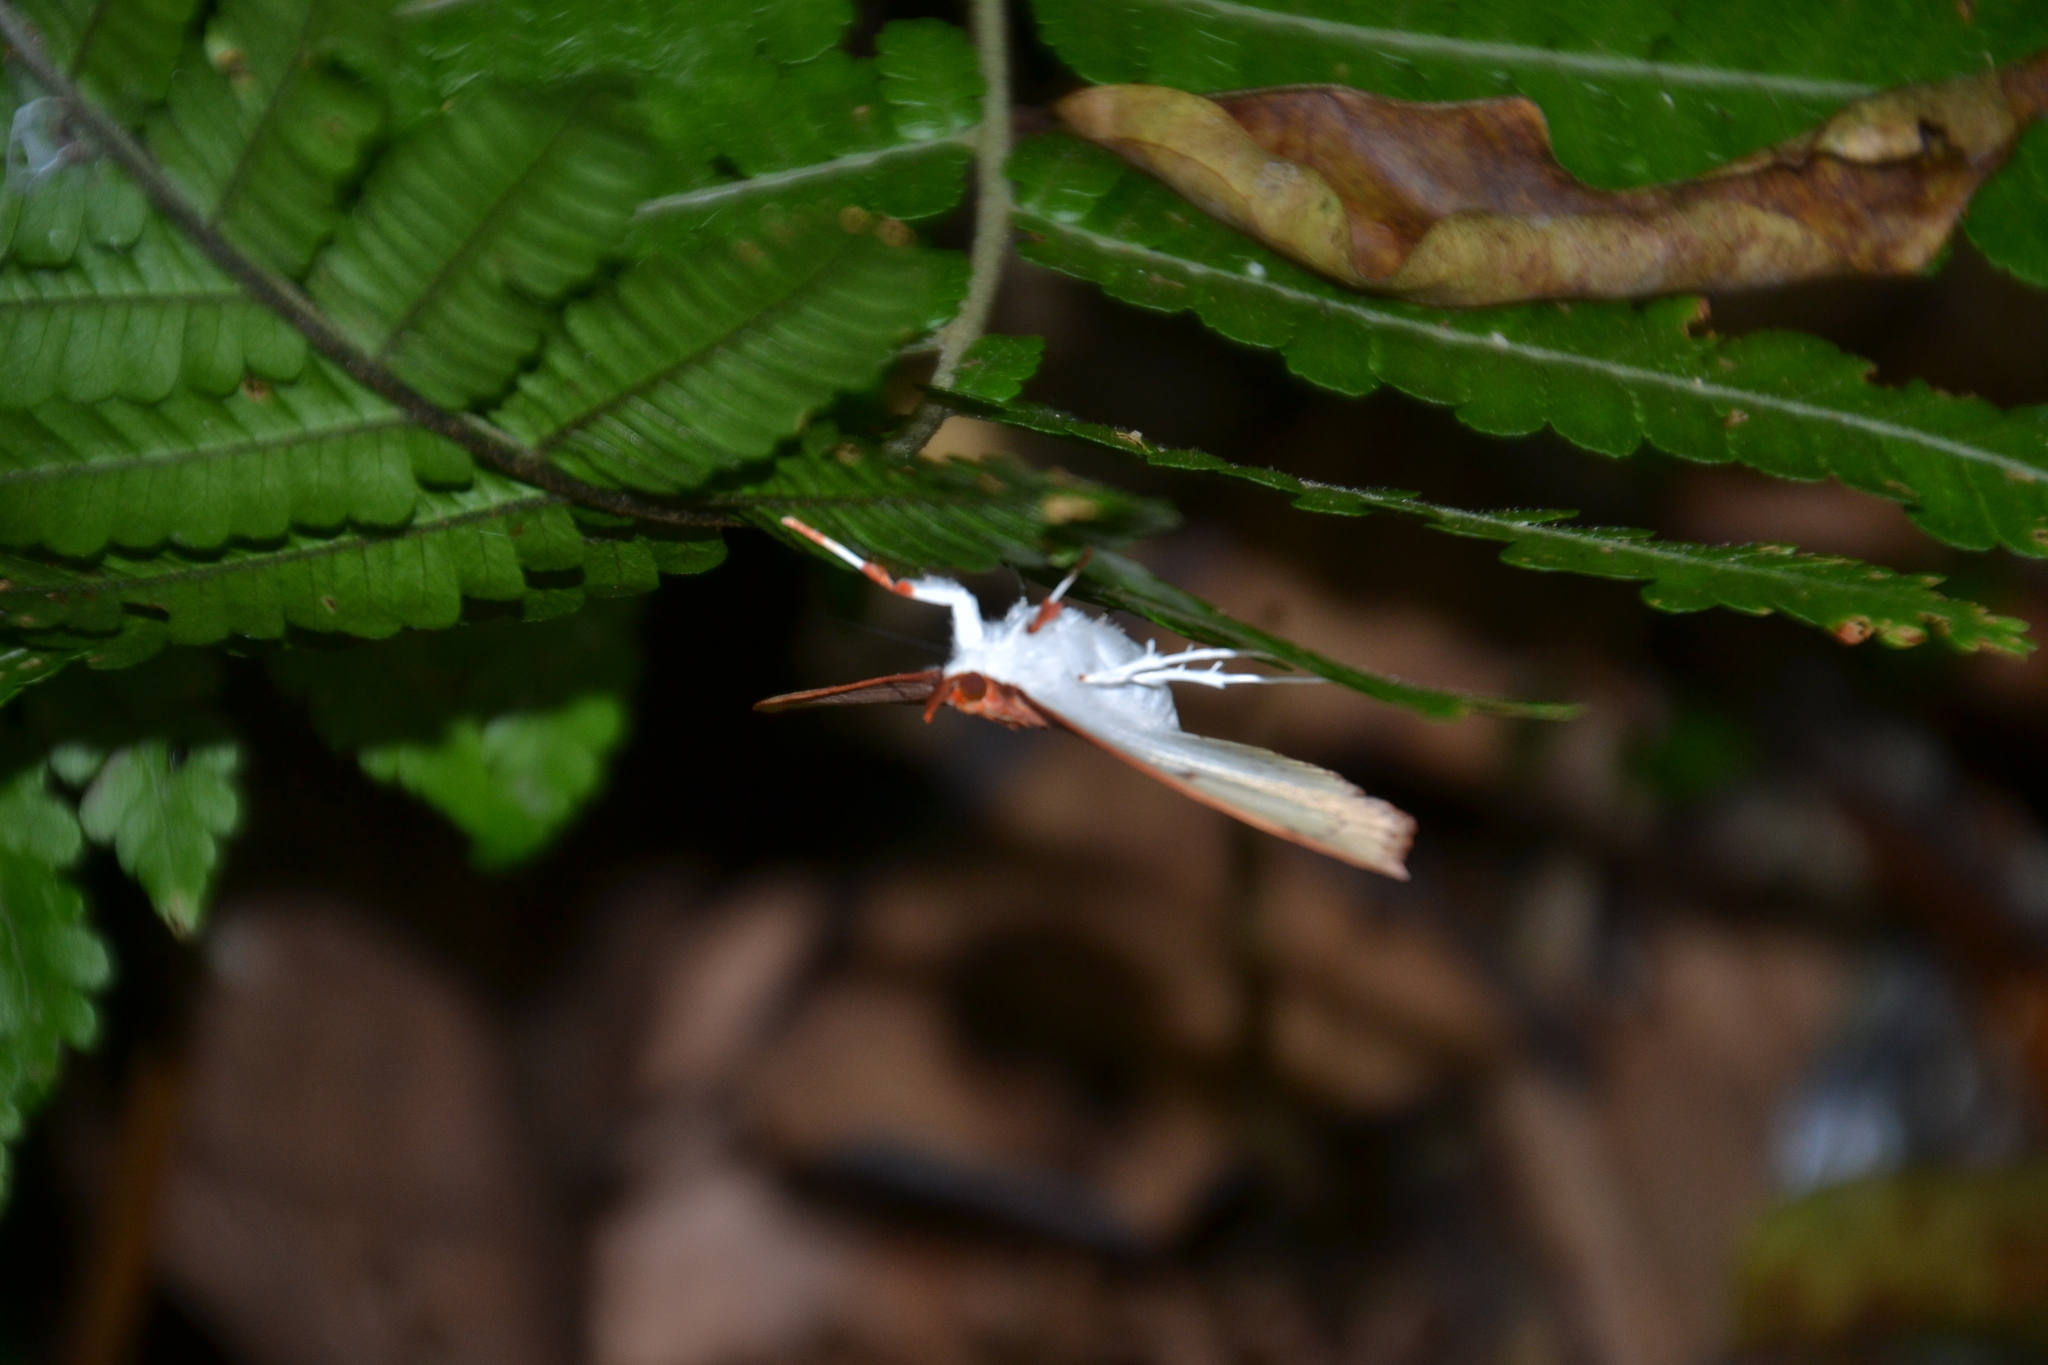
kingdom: Animalia
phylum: Arthropoda
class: Insecta
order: Lepidoptera
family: Crambidae
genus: Midila
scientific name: Midila daphne
